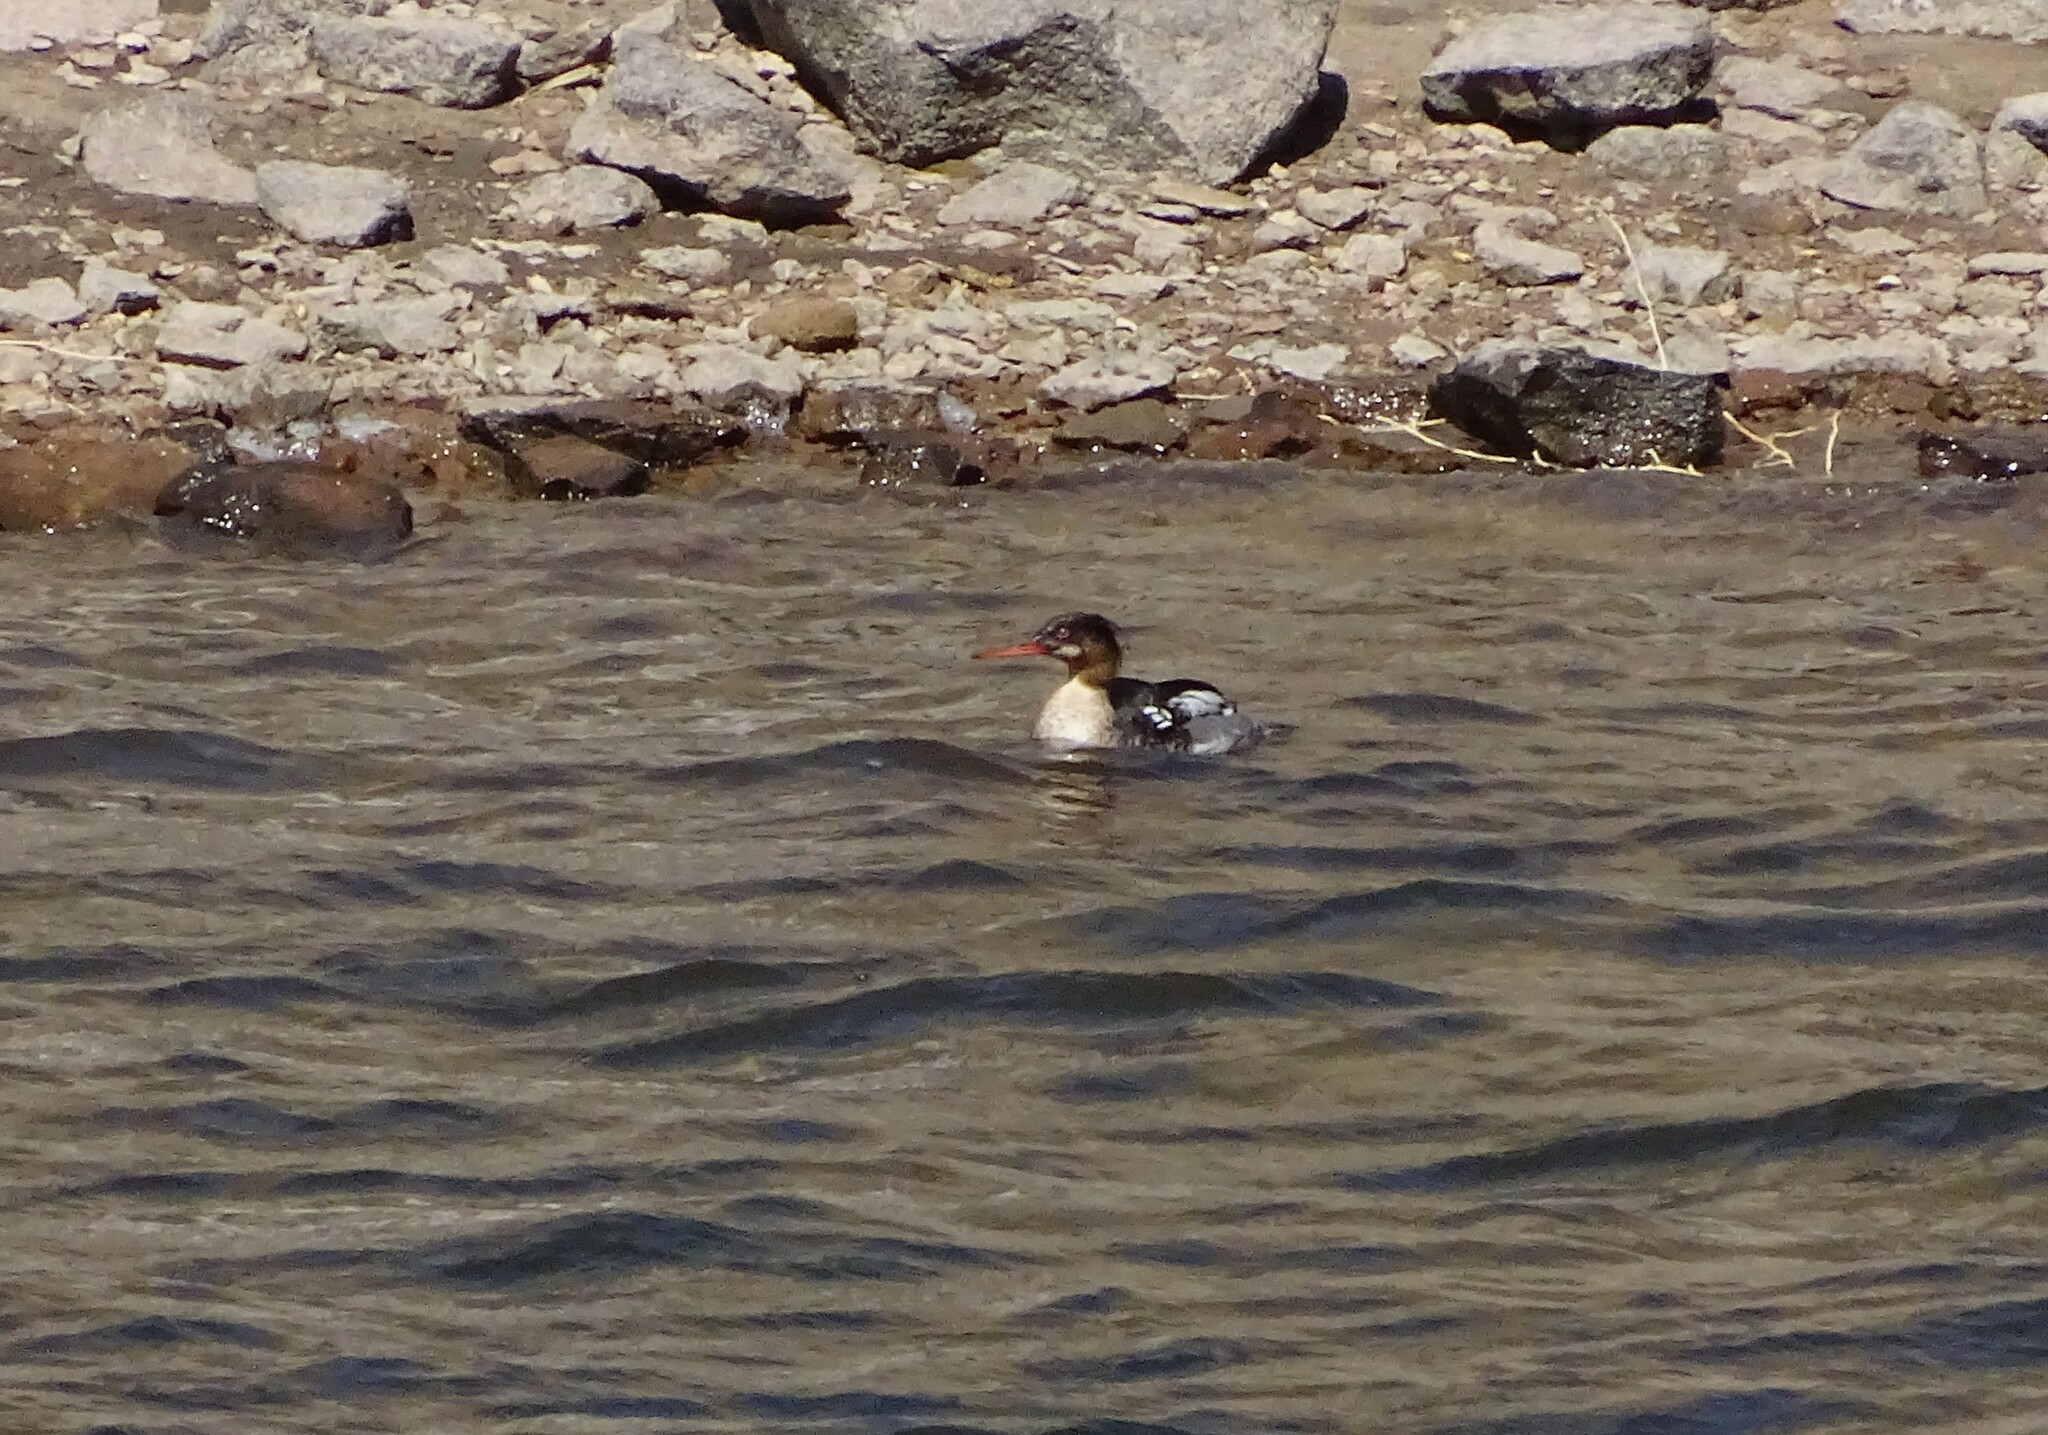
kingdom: Animalia
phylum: Chordata
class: Aves
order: Anseriformes
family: Anatidae
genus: Mergus
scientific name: Mergus serrator
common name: Red-breasted merganser
